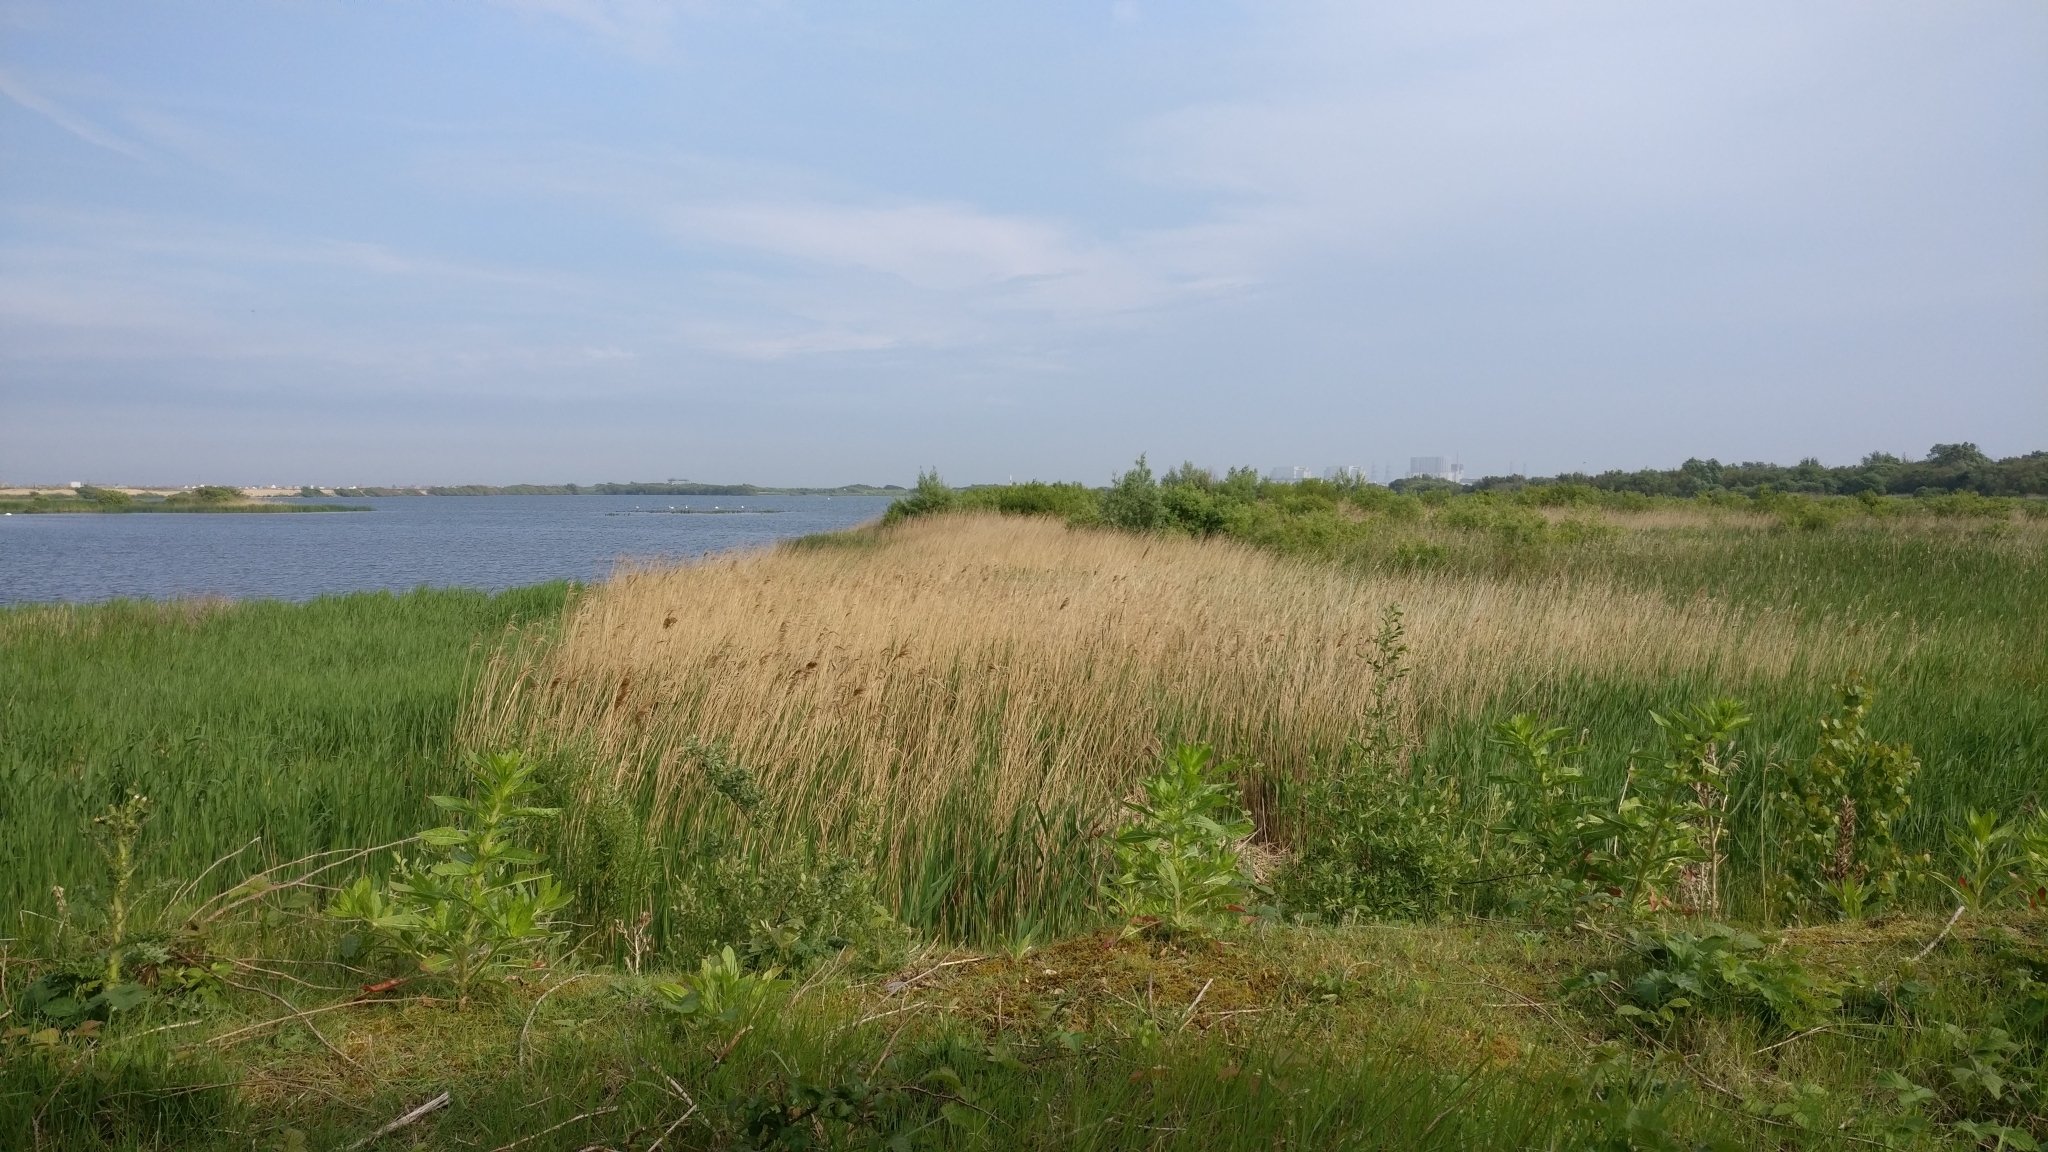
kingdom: Plantae
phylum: Tracheophyta
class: Liliopsida
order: Poales
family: Poaceae
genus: Phragmites
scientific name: Phragmites australis
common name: Common reed
